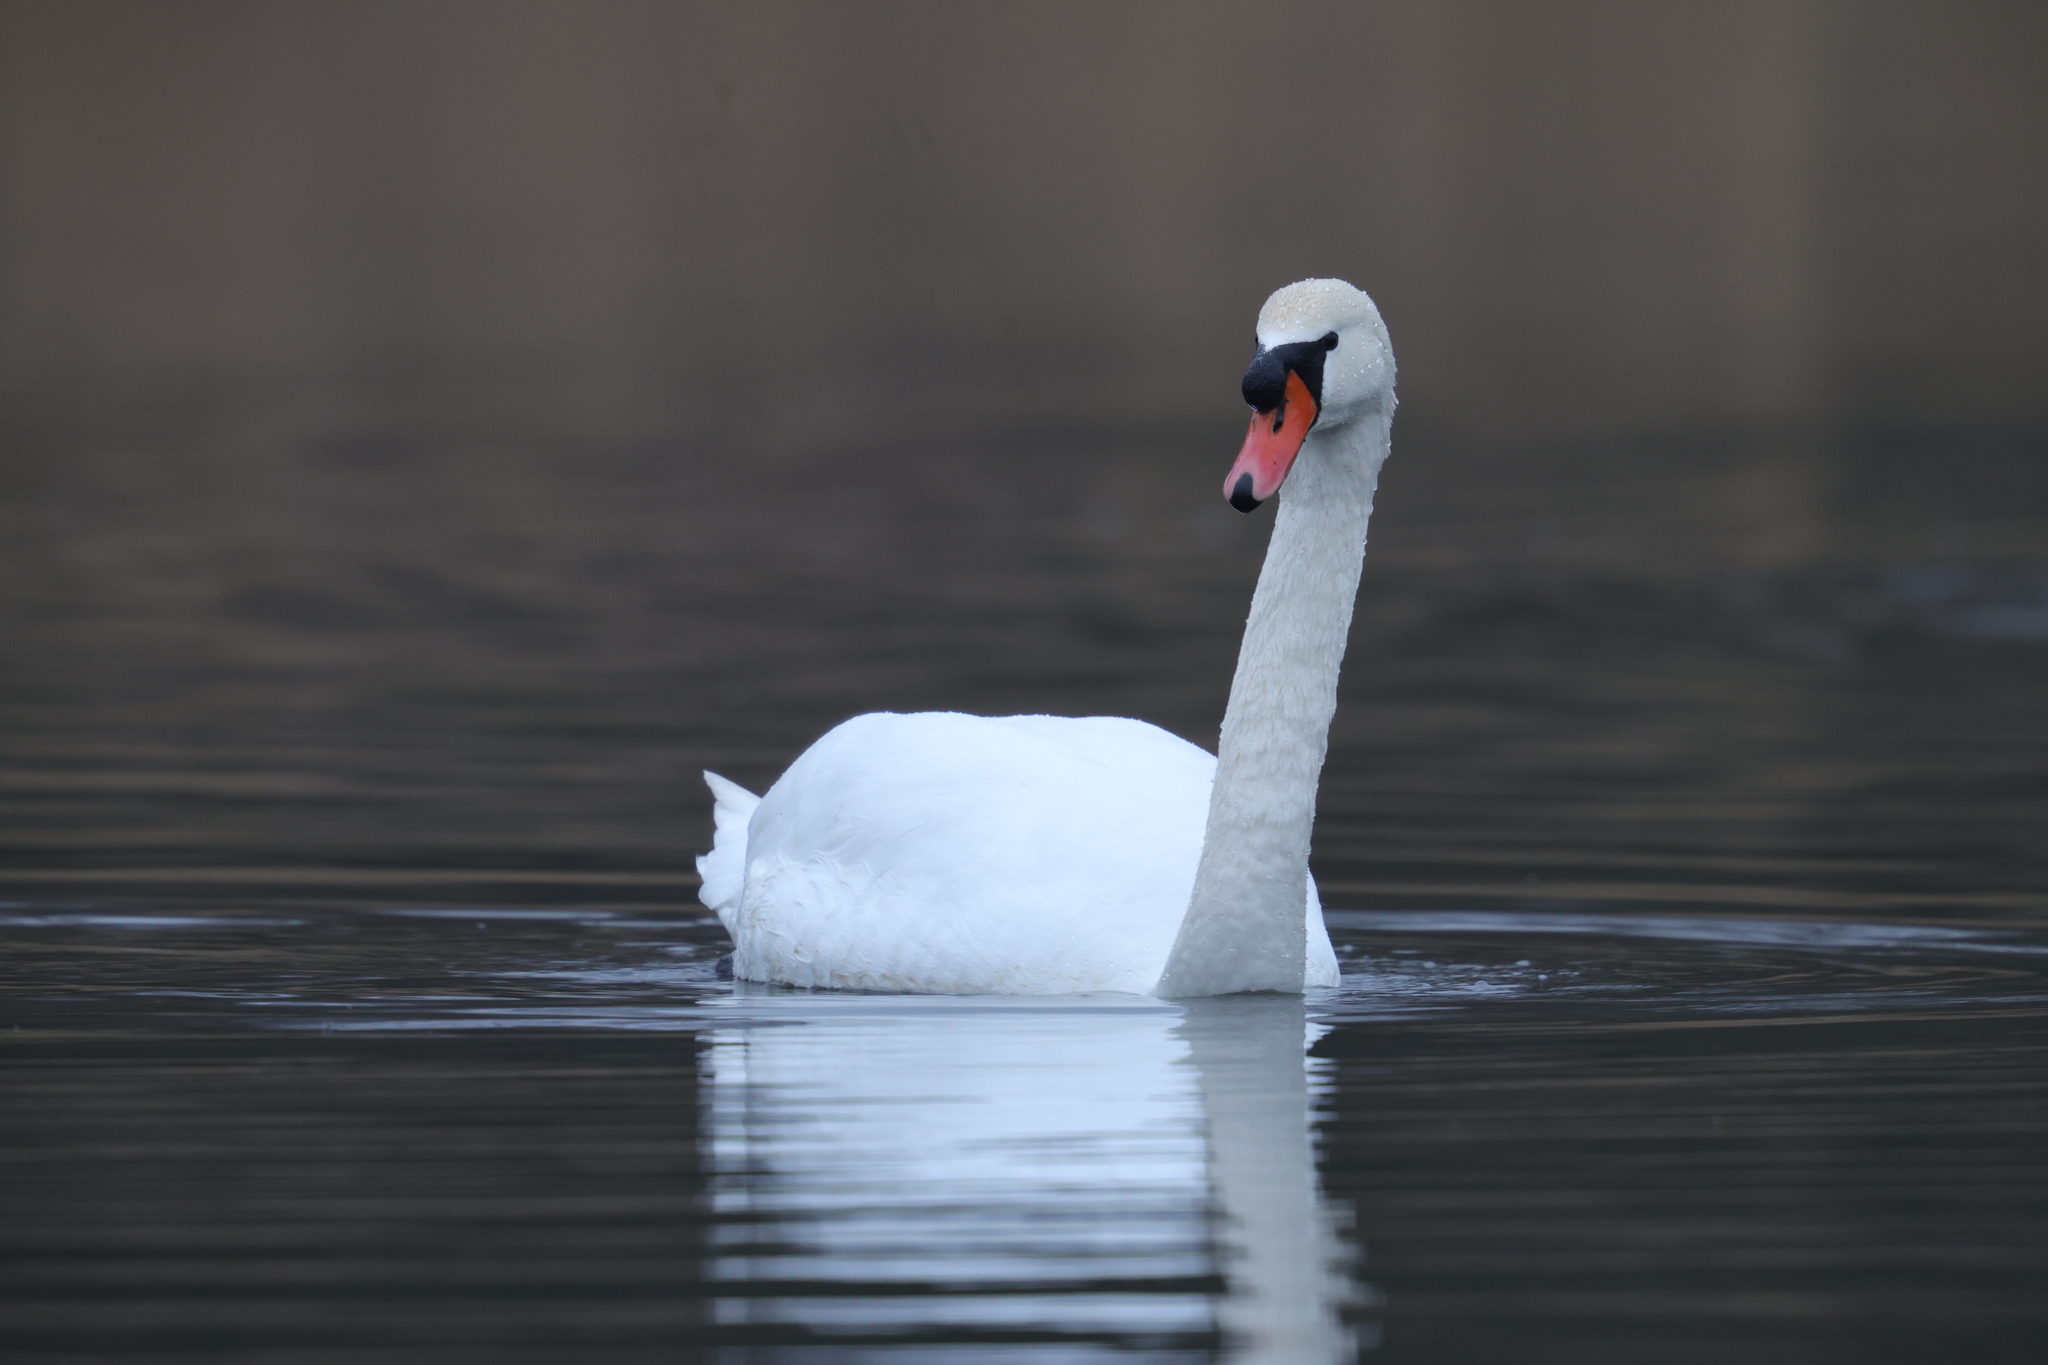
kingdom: Animalia
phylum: Chordata
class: Aves
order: Anseriformes
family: Anatidae
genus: Cygnus
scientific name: Cygnus olor
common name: Mute swan
